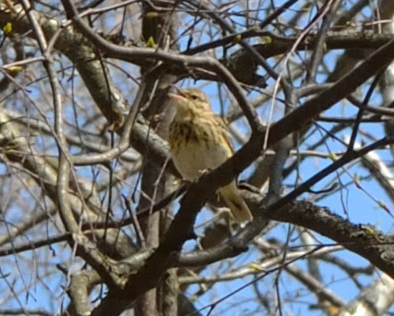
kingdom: Animalia
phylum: Chordata
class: Aves
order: Passeriformes
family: Motacillidae
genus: Anthus
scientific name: Anthus trivialis
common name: Tree pipit
